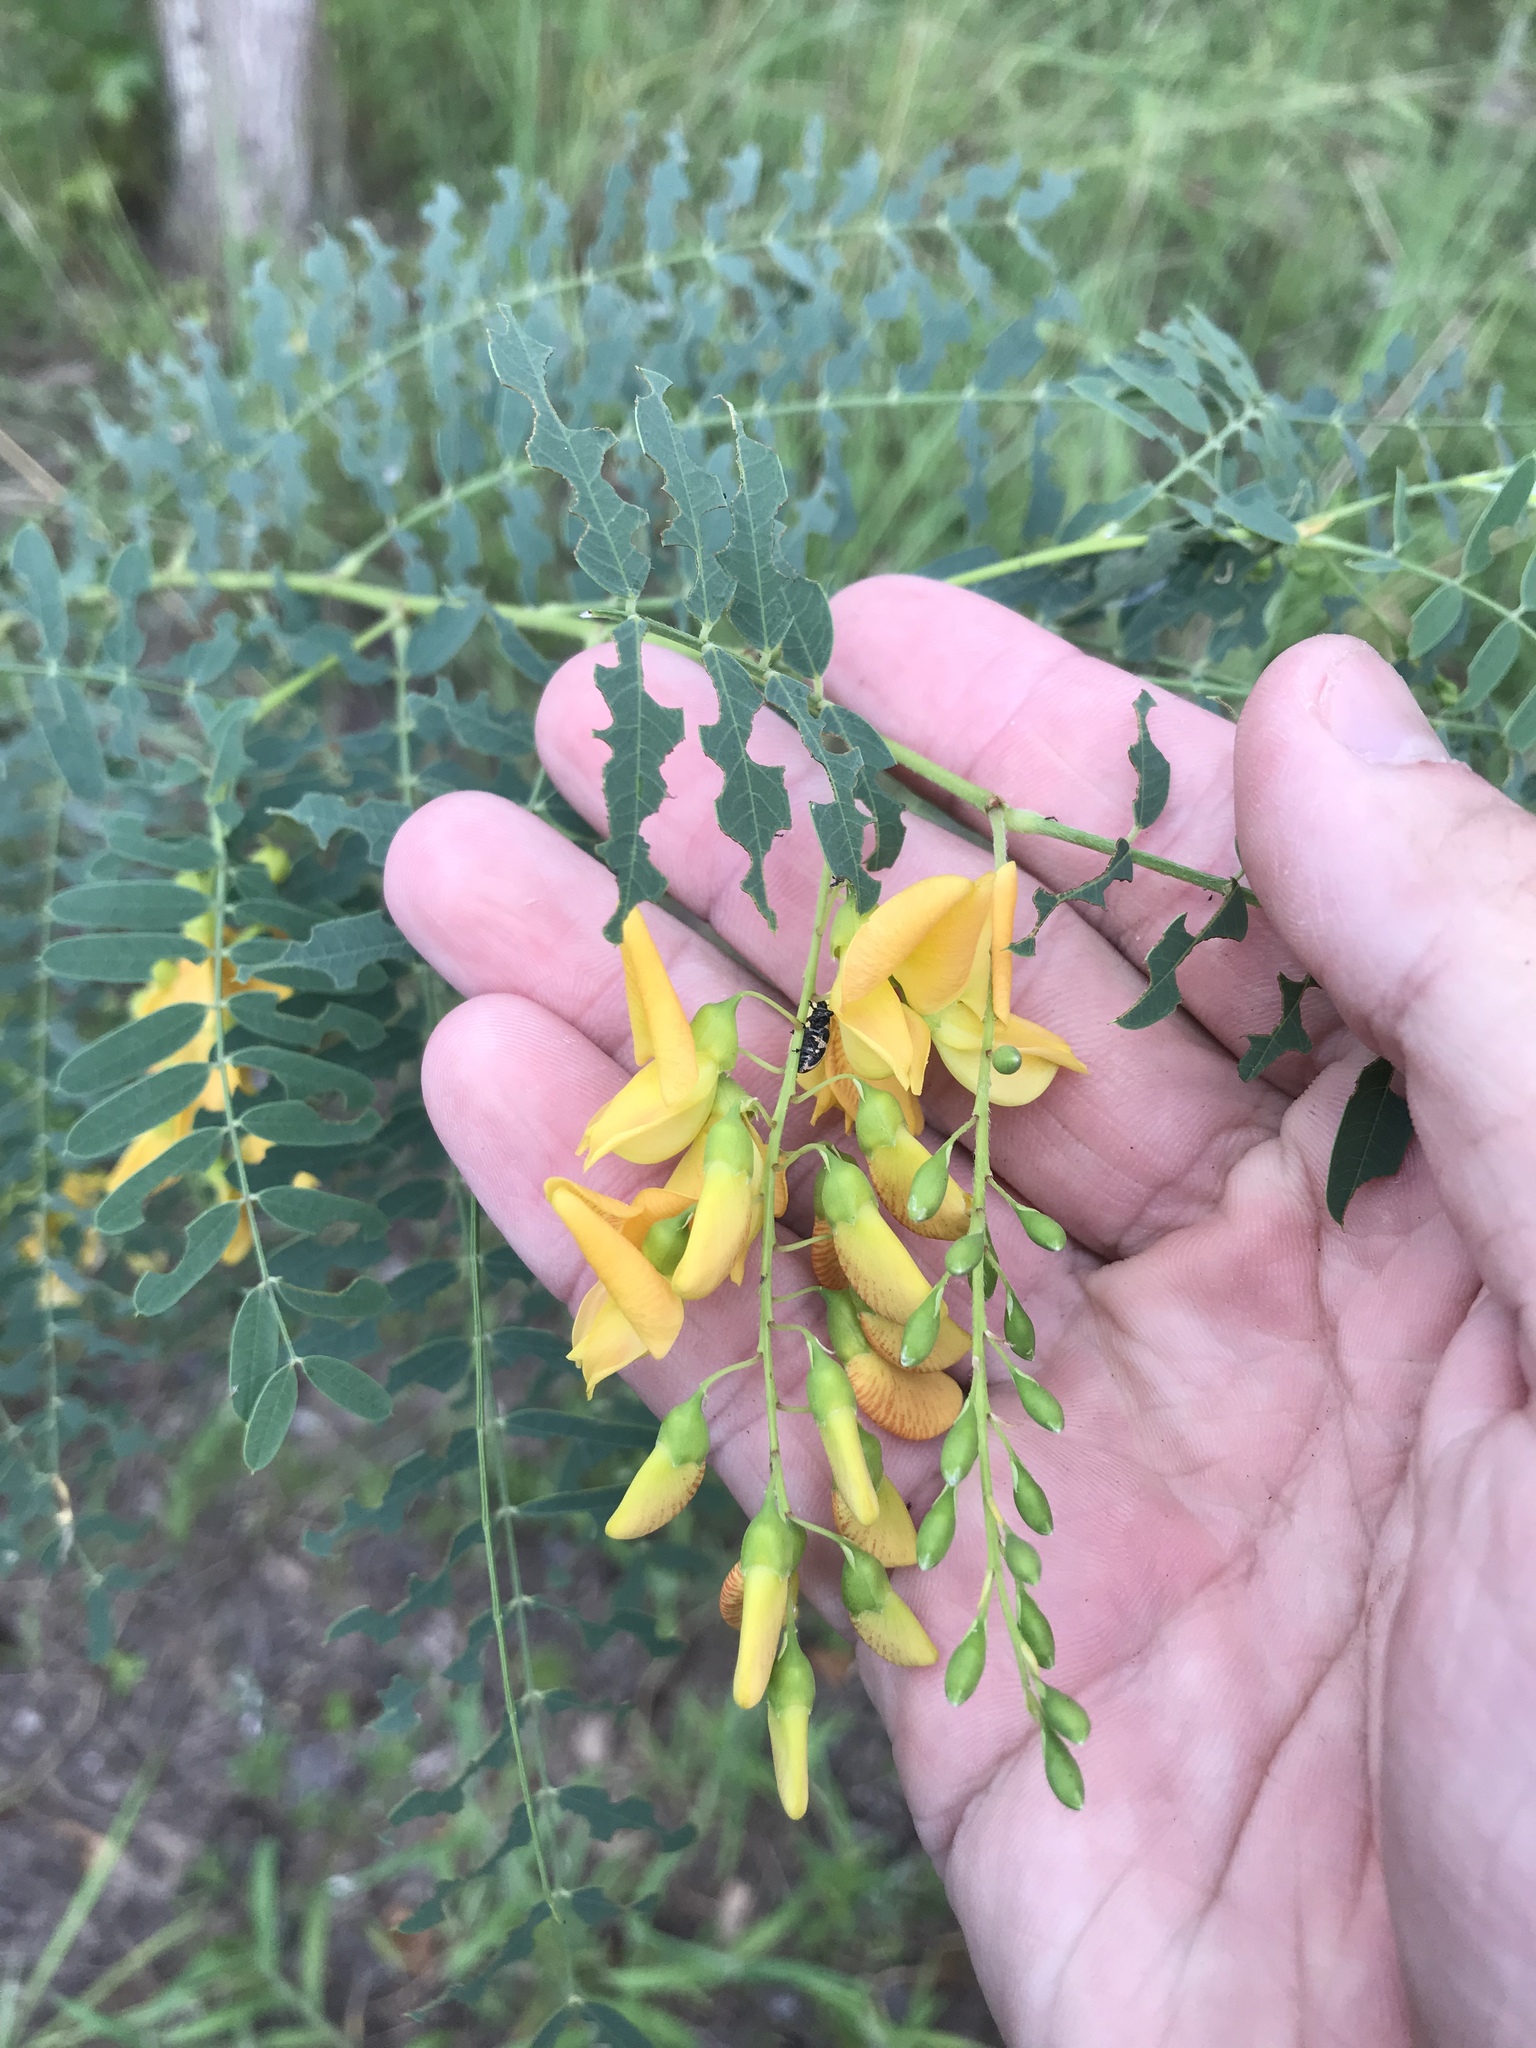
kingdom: Plantae
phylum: Tracheophyta
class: Magnoliopsida
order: Fabales
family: Fabaceae
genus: Sesbania
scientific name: Sesbania drummondii
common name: Poison-bean
